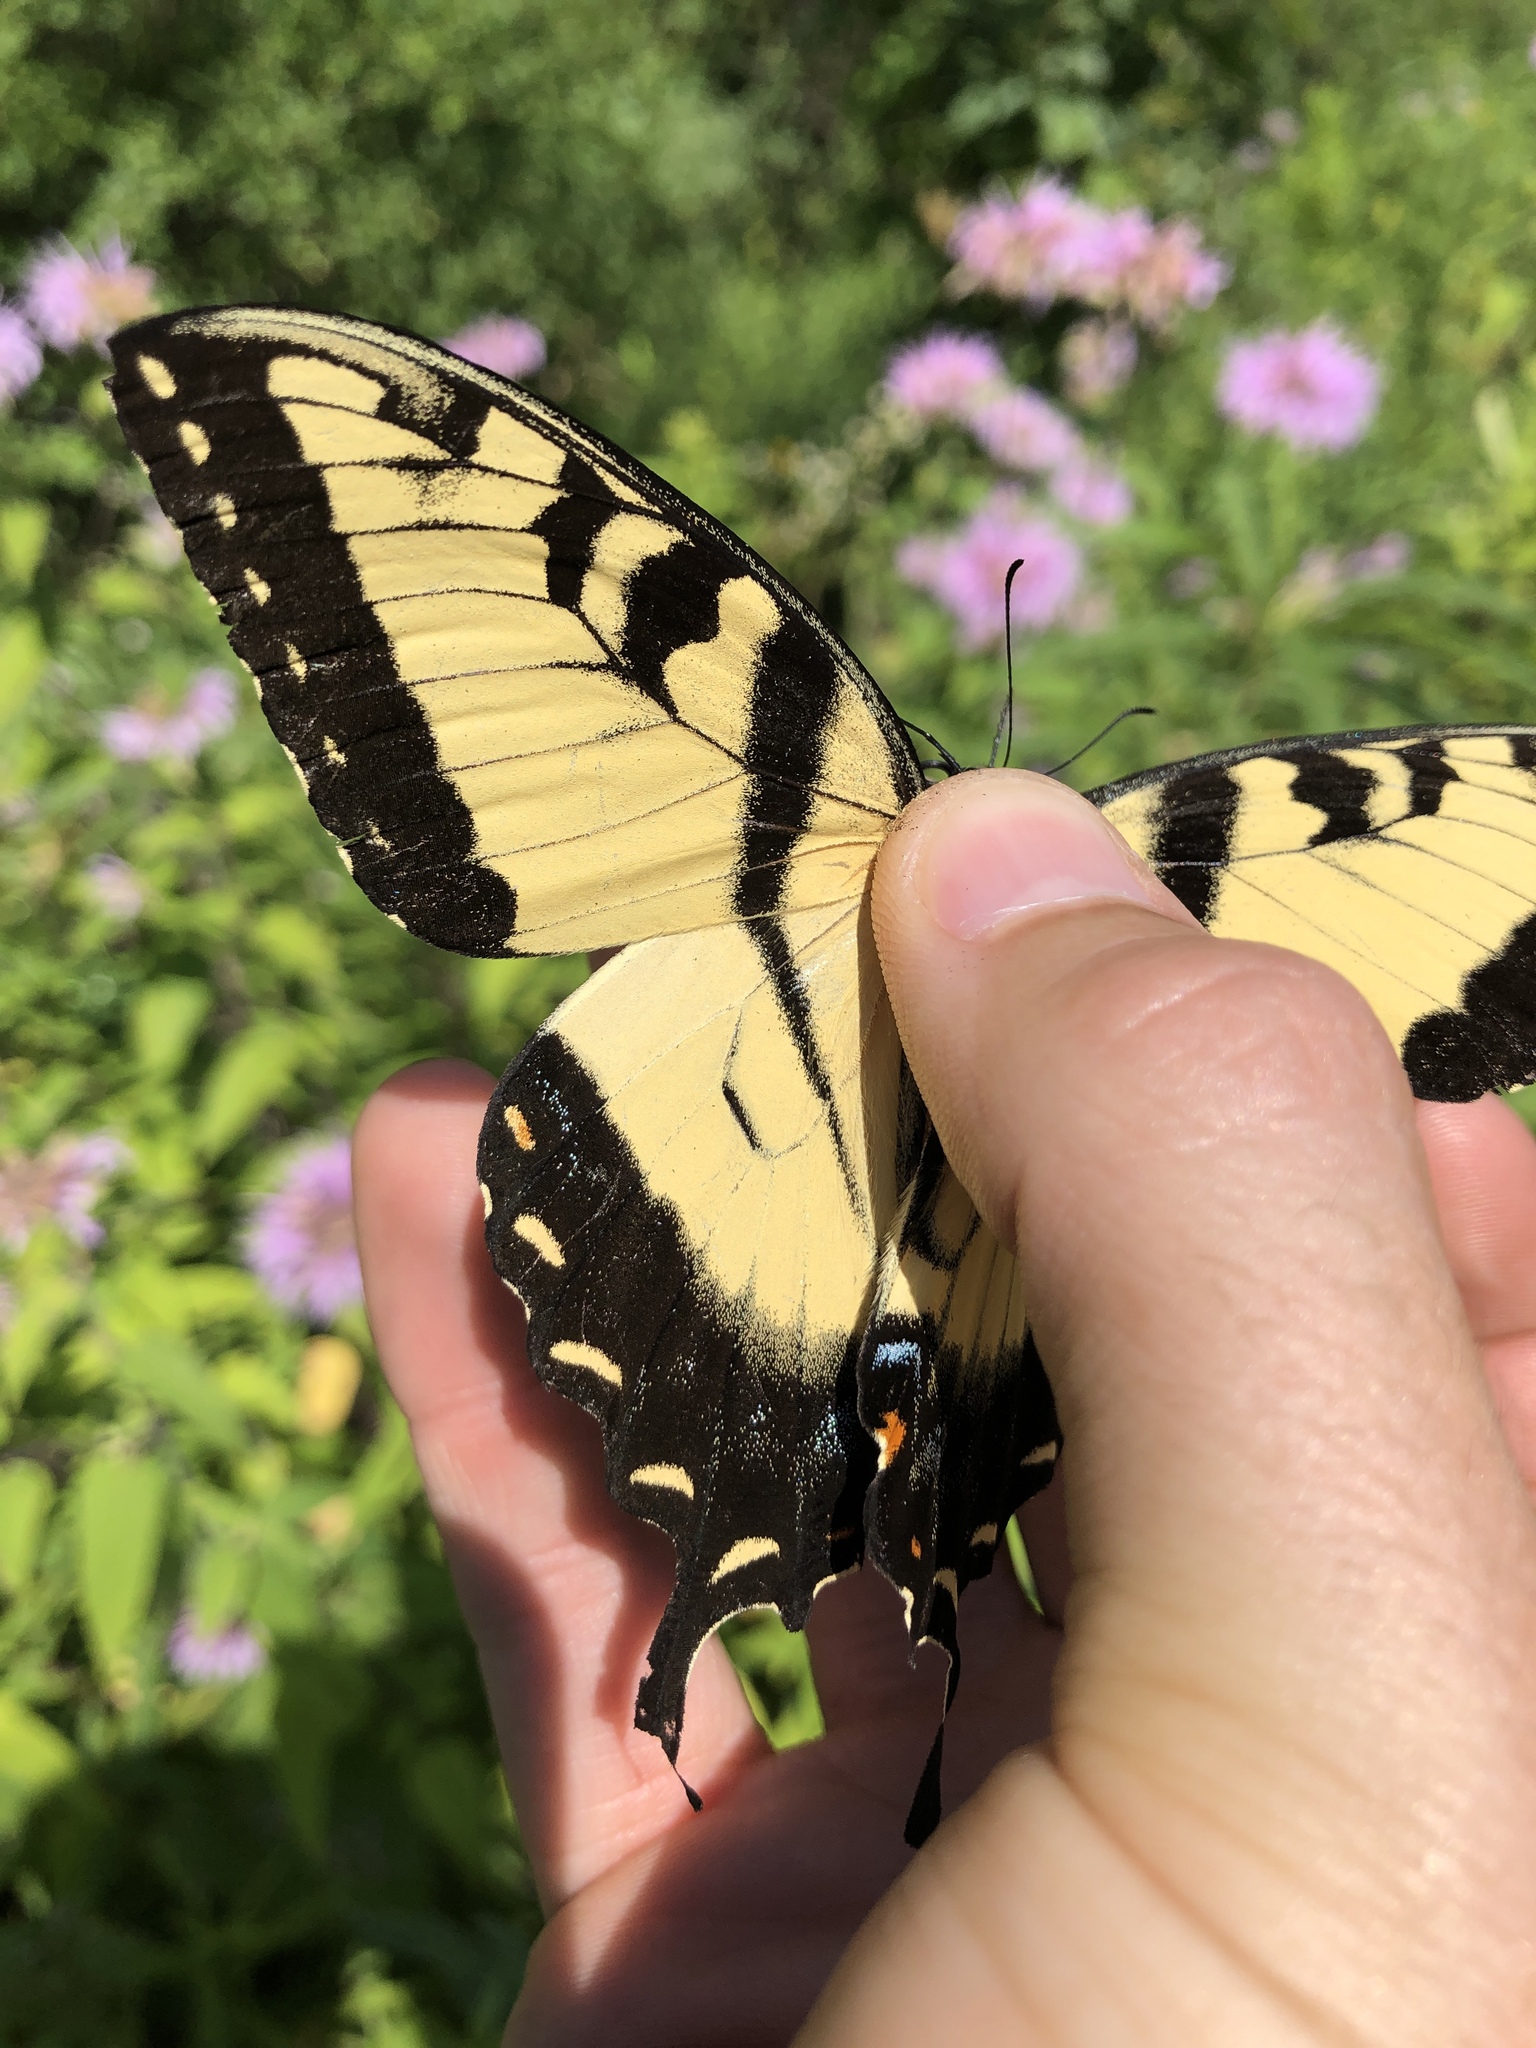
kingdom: Animalia
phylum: Arthropoda
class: Insecta
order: Lepidoptera
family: Papilionidae
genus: Papilio
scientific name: Papilio glaucus
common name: Tiger swallowtail
